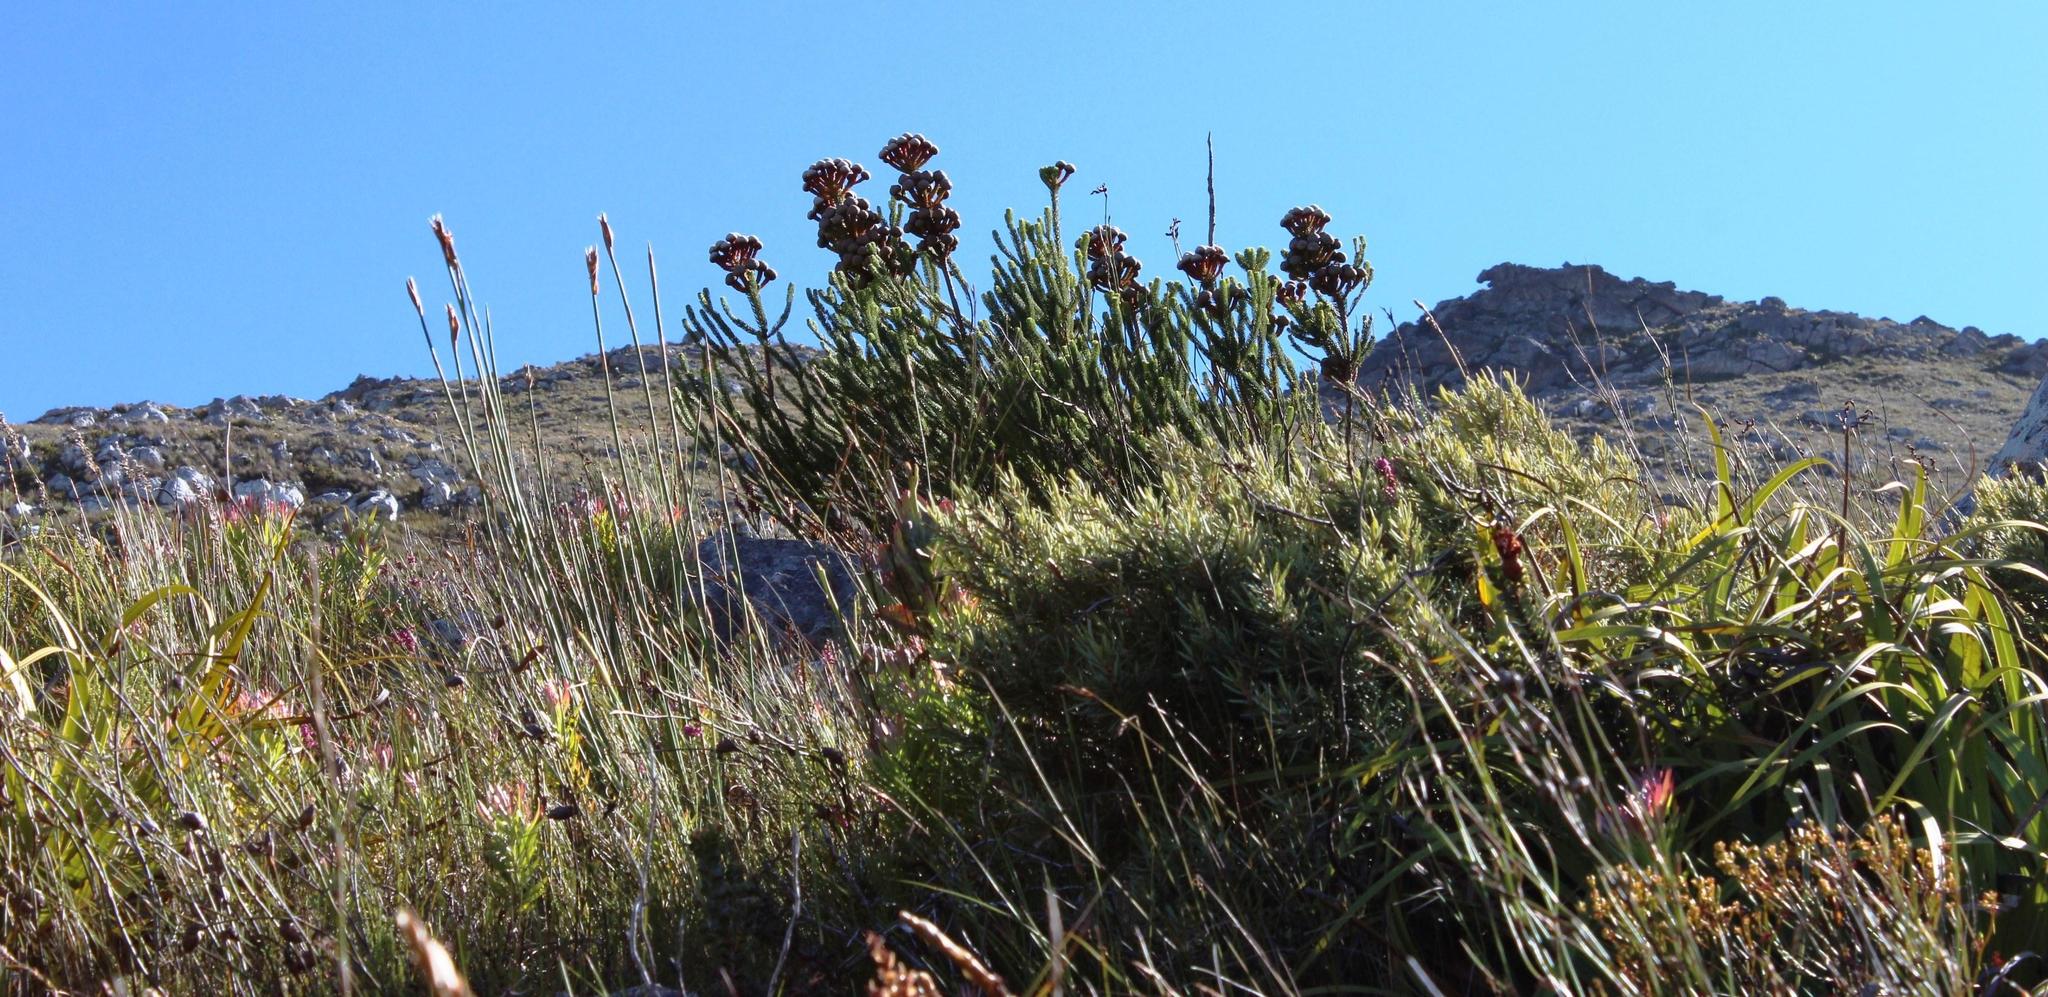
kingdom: Plantae
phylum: Tracheophyta
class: Magnoliopsida
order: Bruniales
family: Bruniaceae
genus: Berzelia
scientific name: Berzelia stokoei
